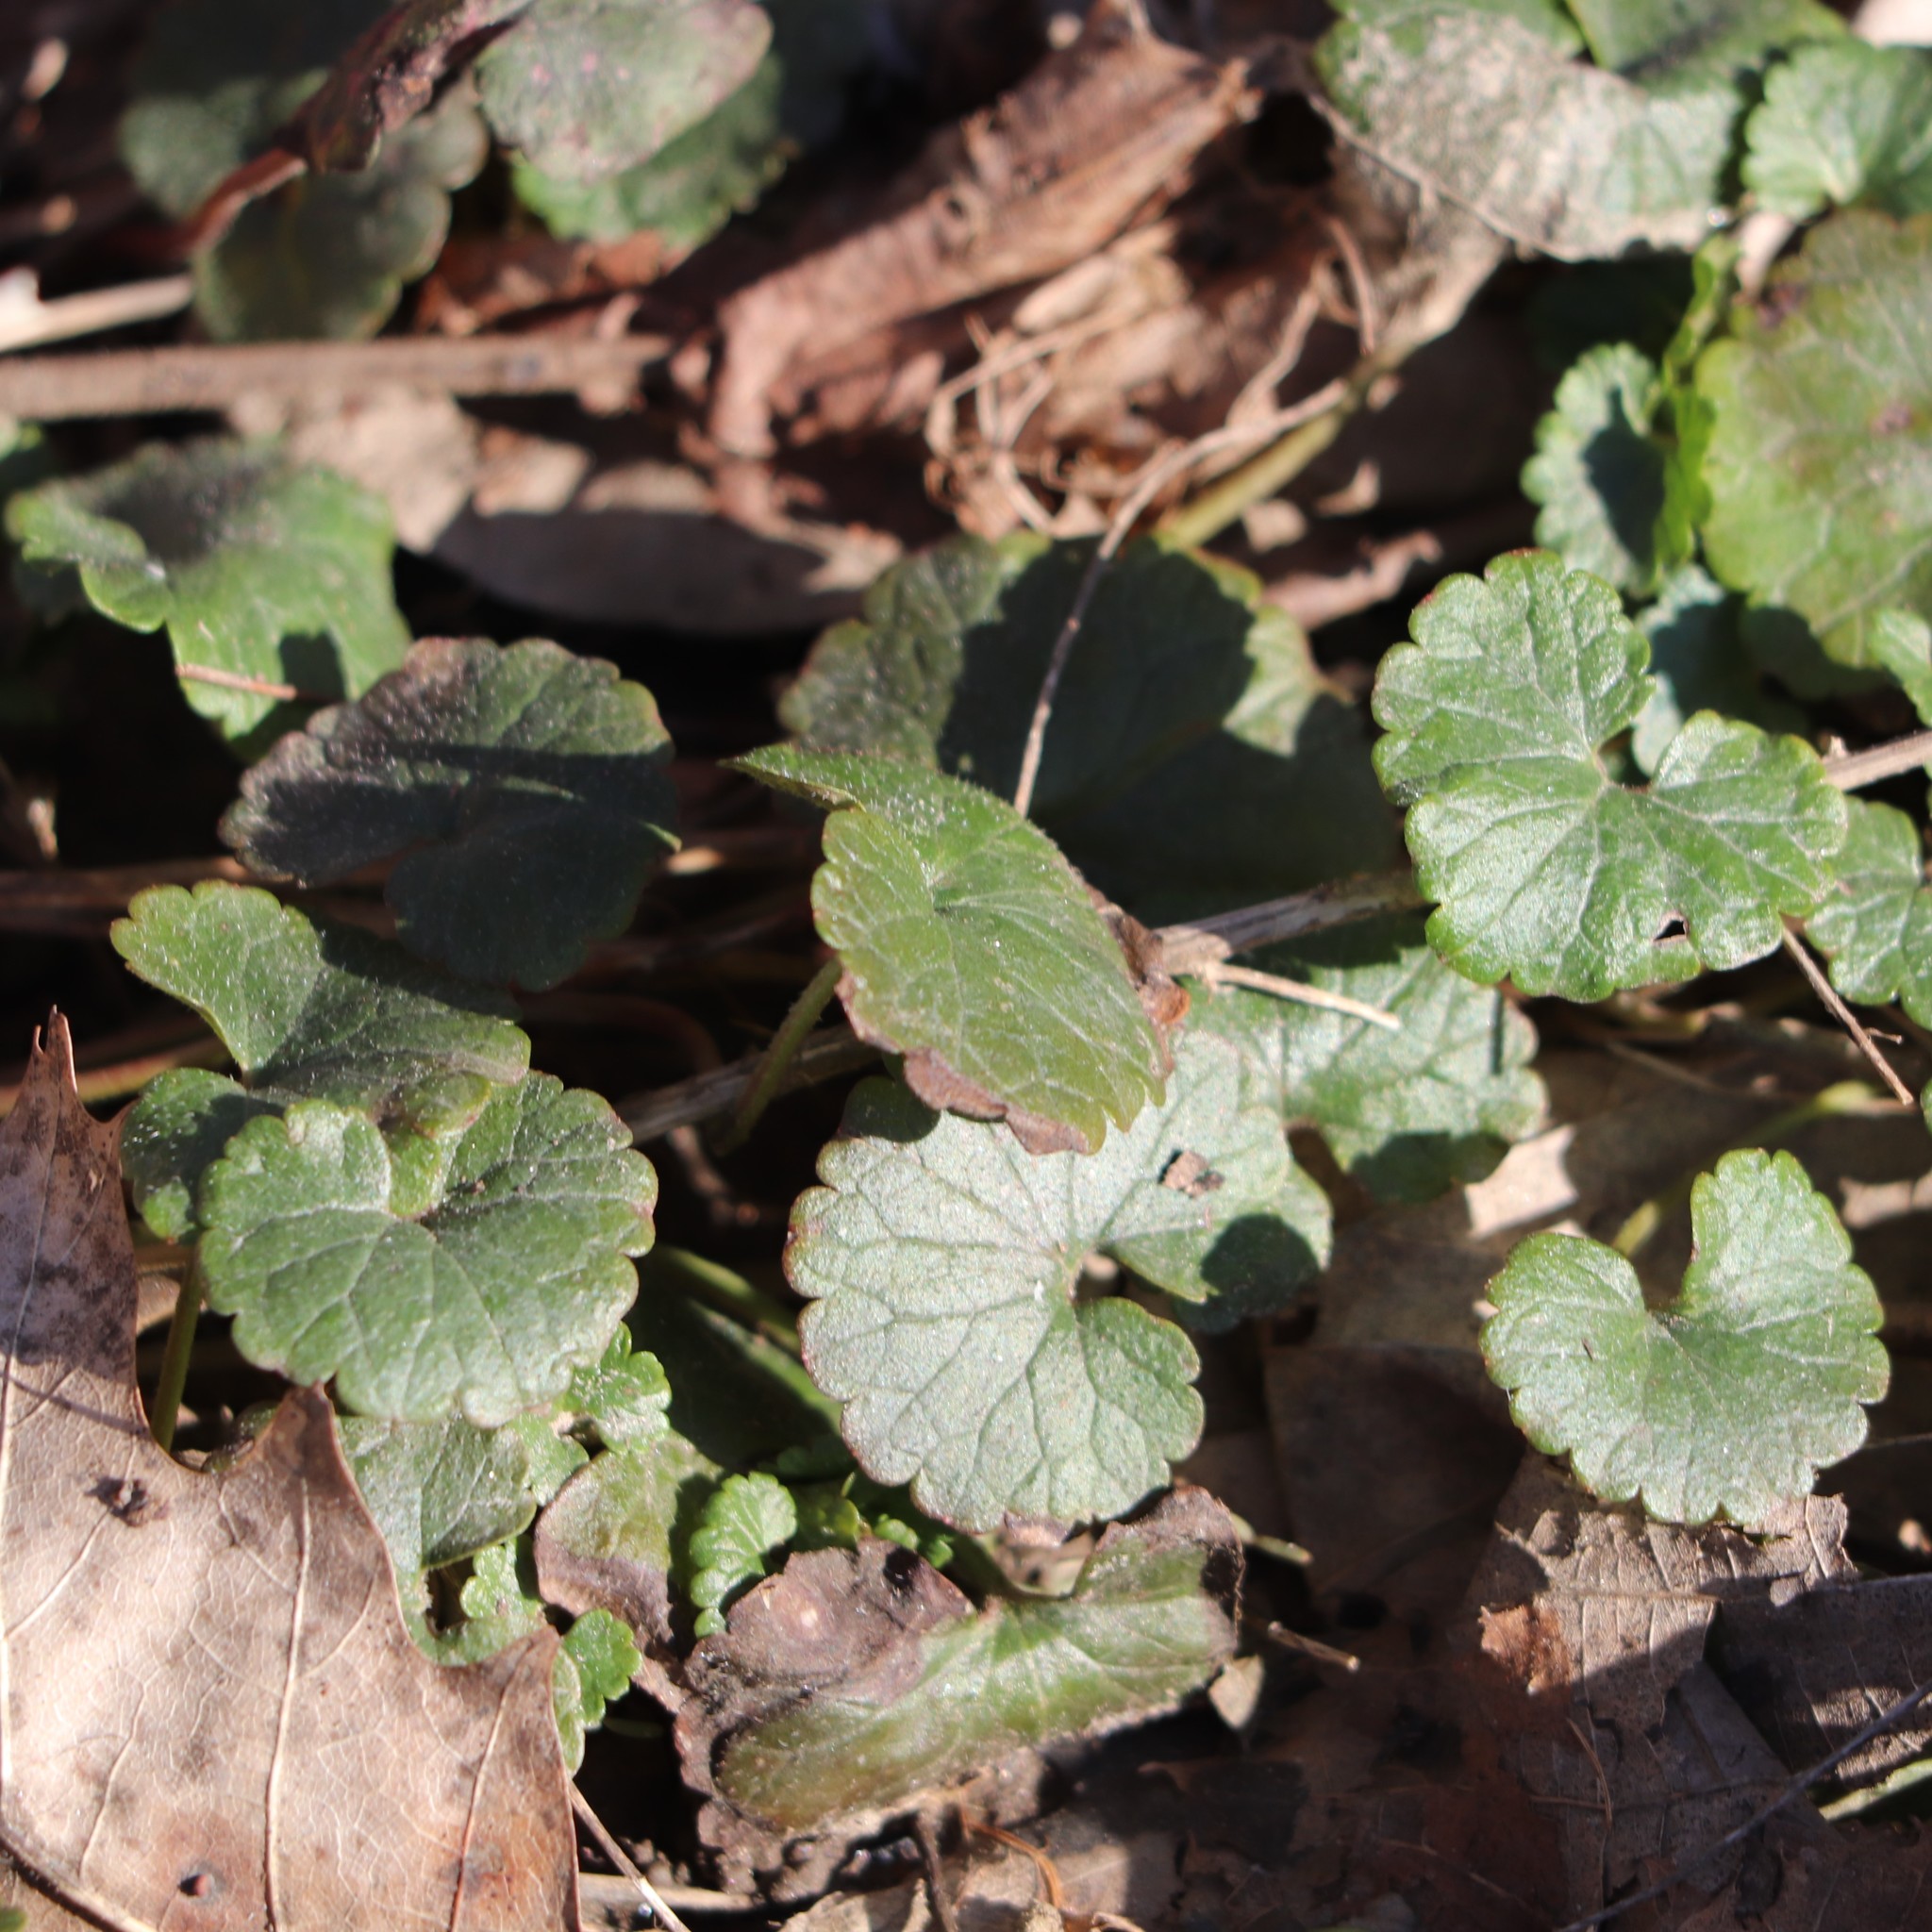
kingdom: Plantae
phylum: Tracheophyta
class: Magnoliopsida
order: Lamiales
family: Lamiaceae
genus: Glechoma
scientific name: Glechoma hederacea
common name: Ground ivy
